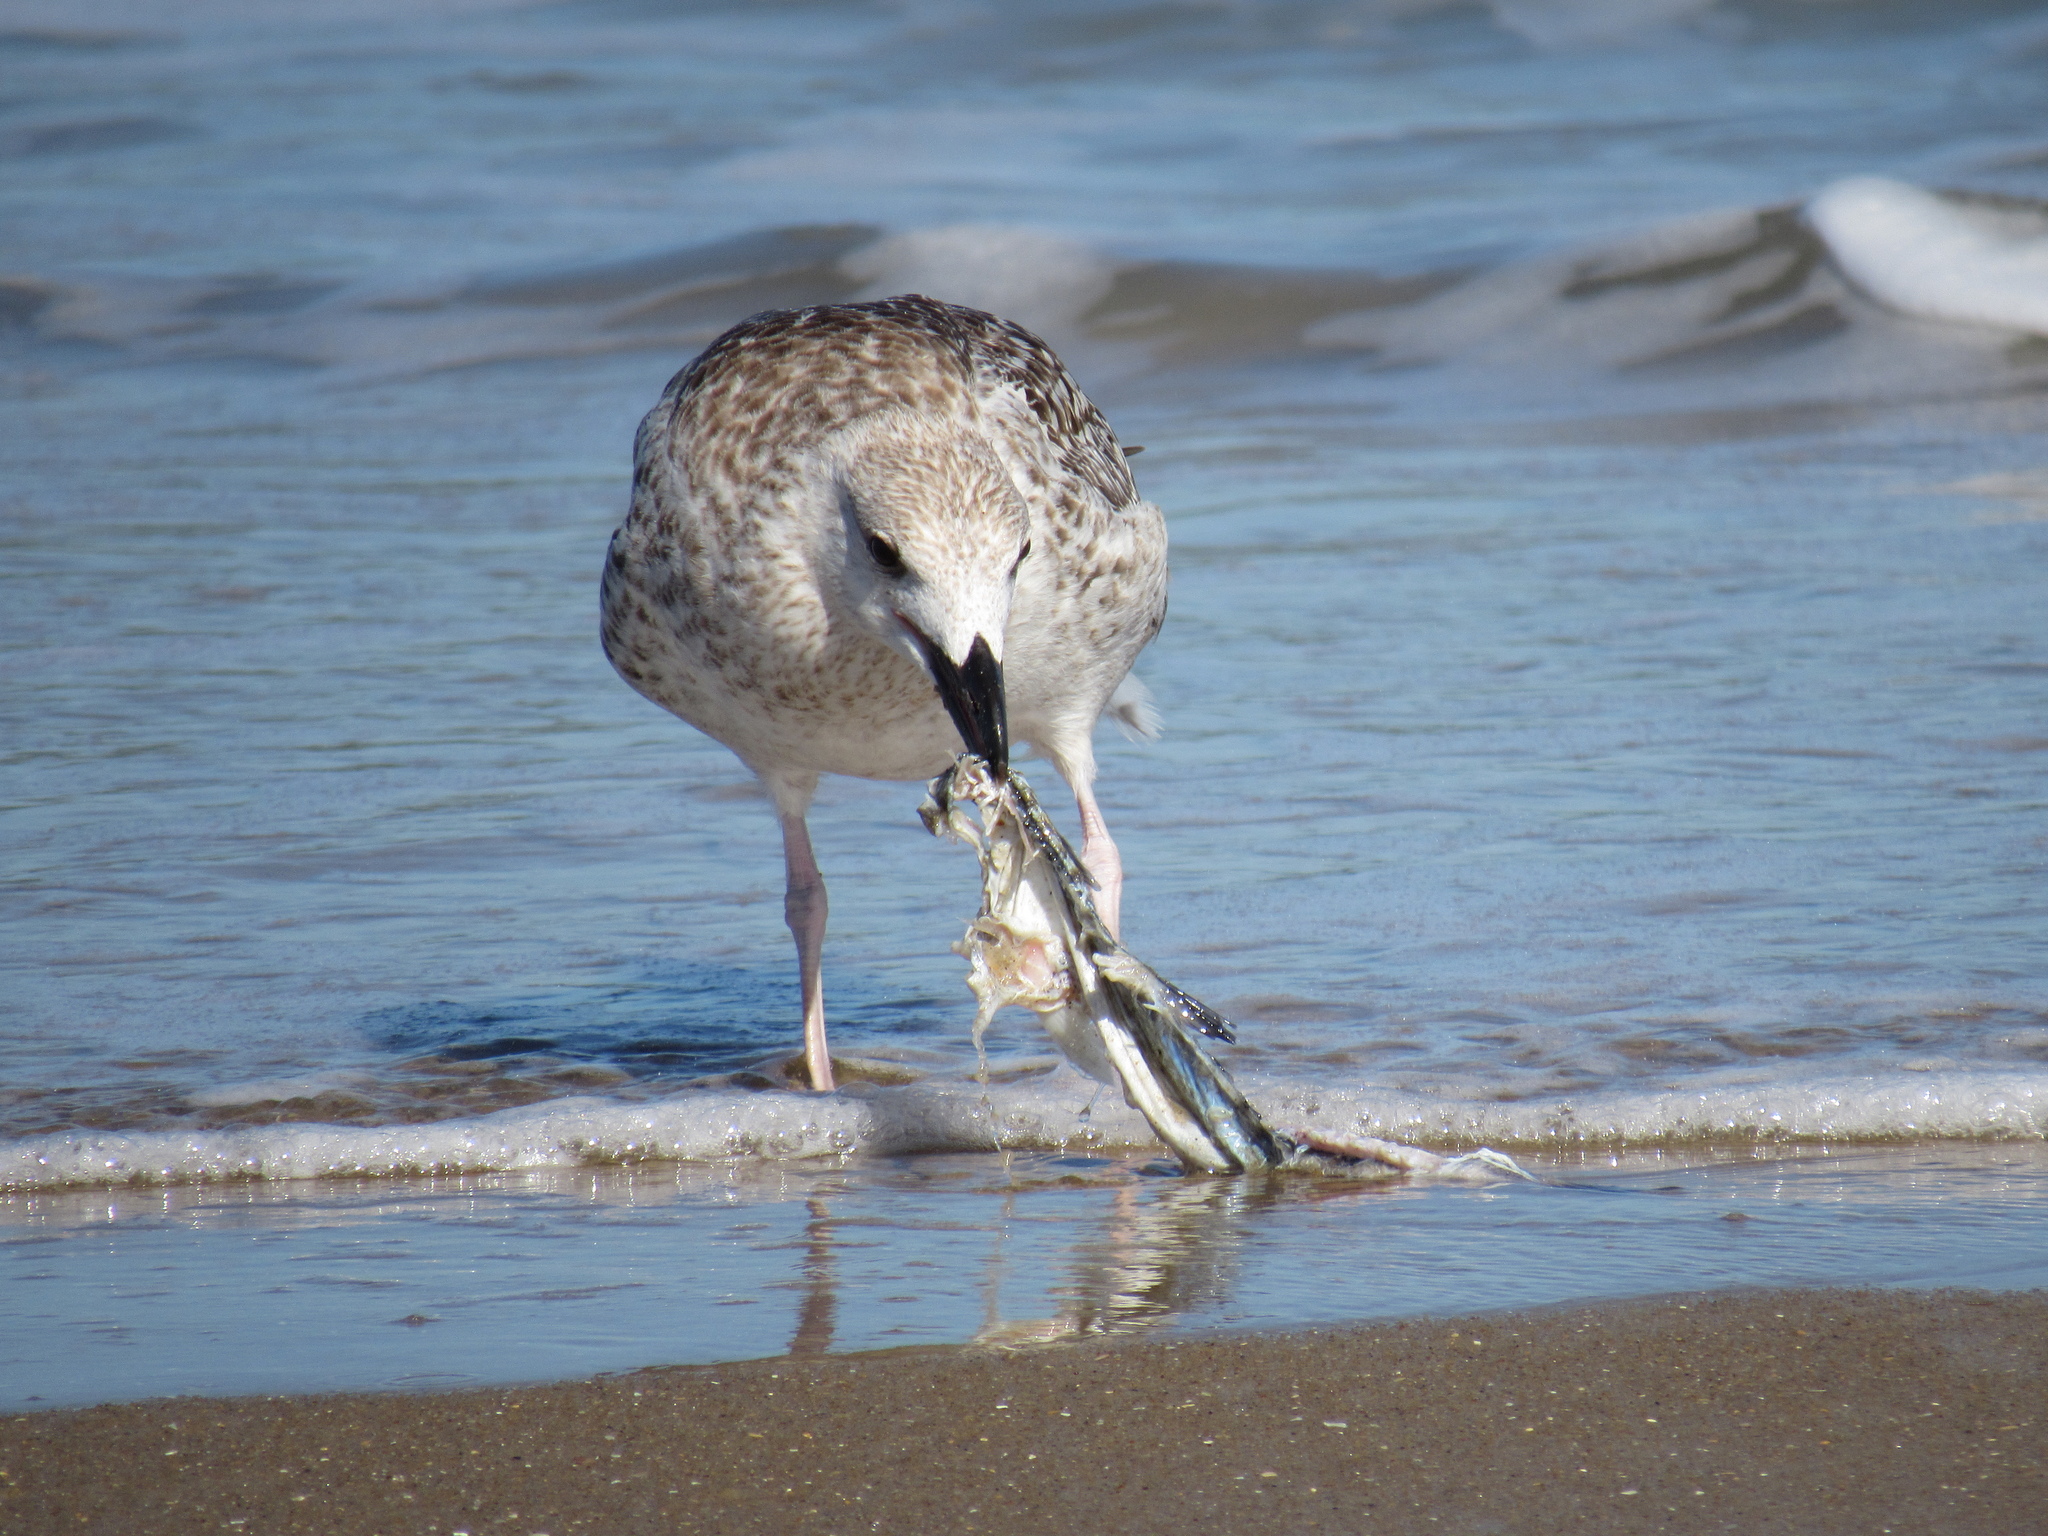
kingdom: Animalia
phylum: Chordata
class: Aves
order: Charadriiformes
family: Laridae
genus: Larus
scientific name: Larus marinus
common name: Great black-backed gull
